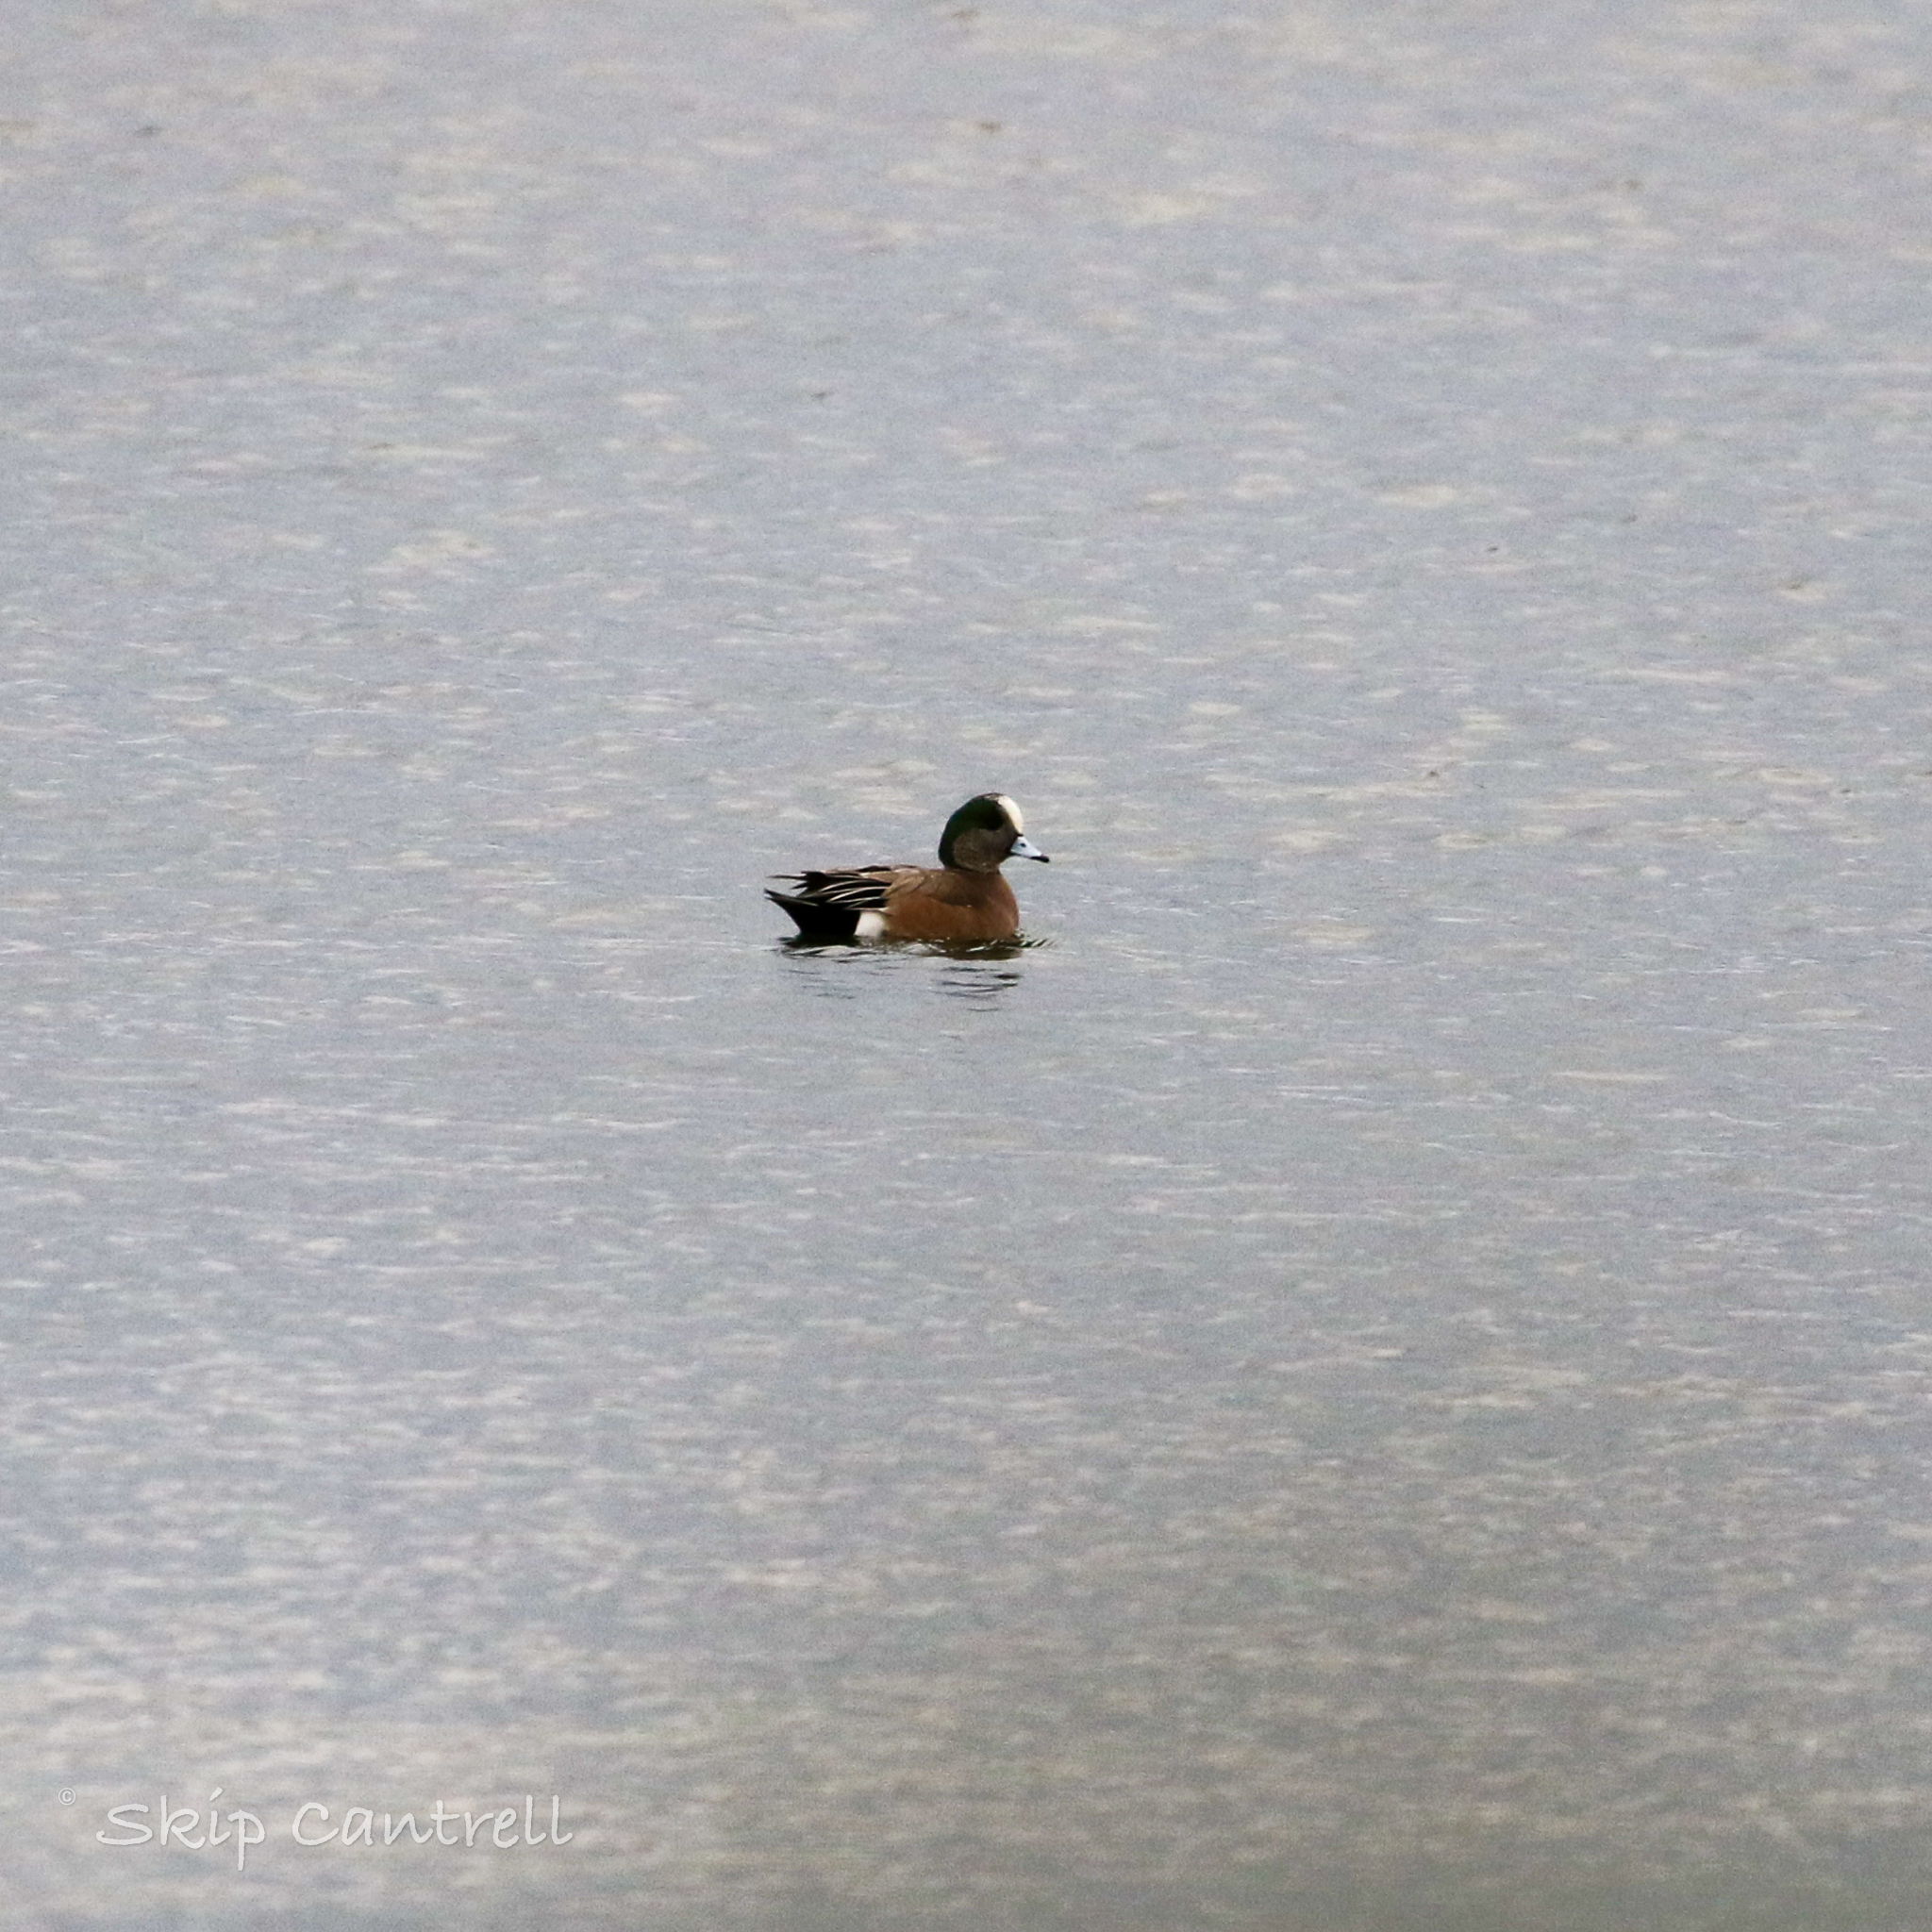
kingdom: Animalia
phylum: Chordata
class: Aves
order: Anseriformes
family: Anatidae
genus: Mareca
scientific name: Mareca americana
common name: American wigeon
